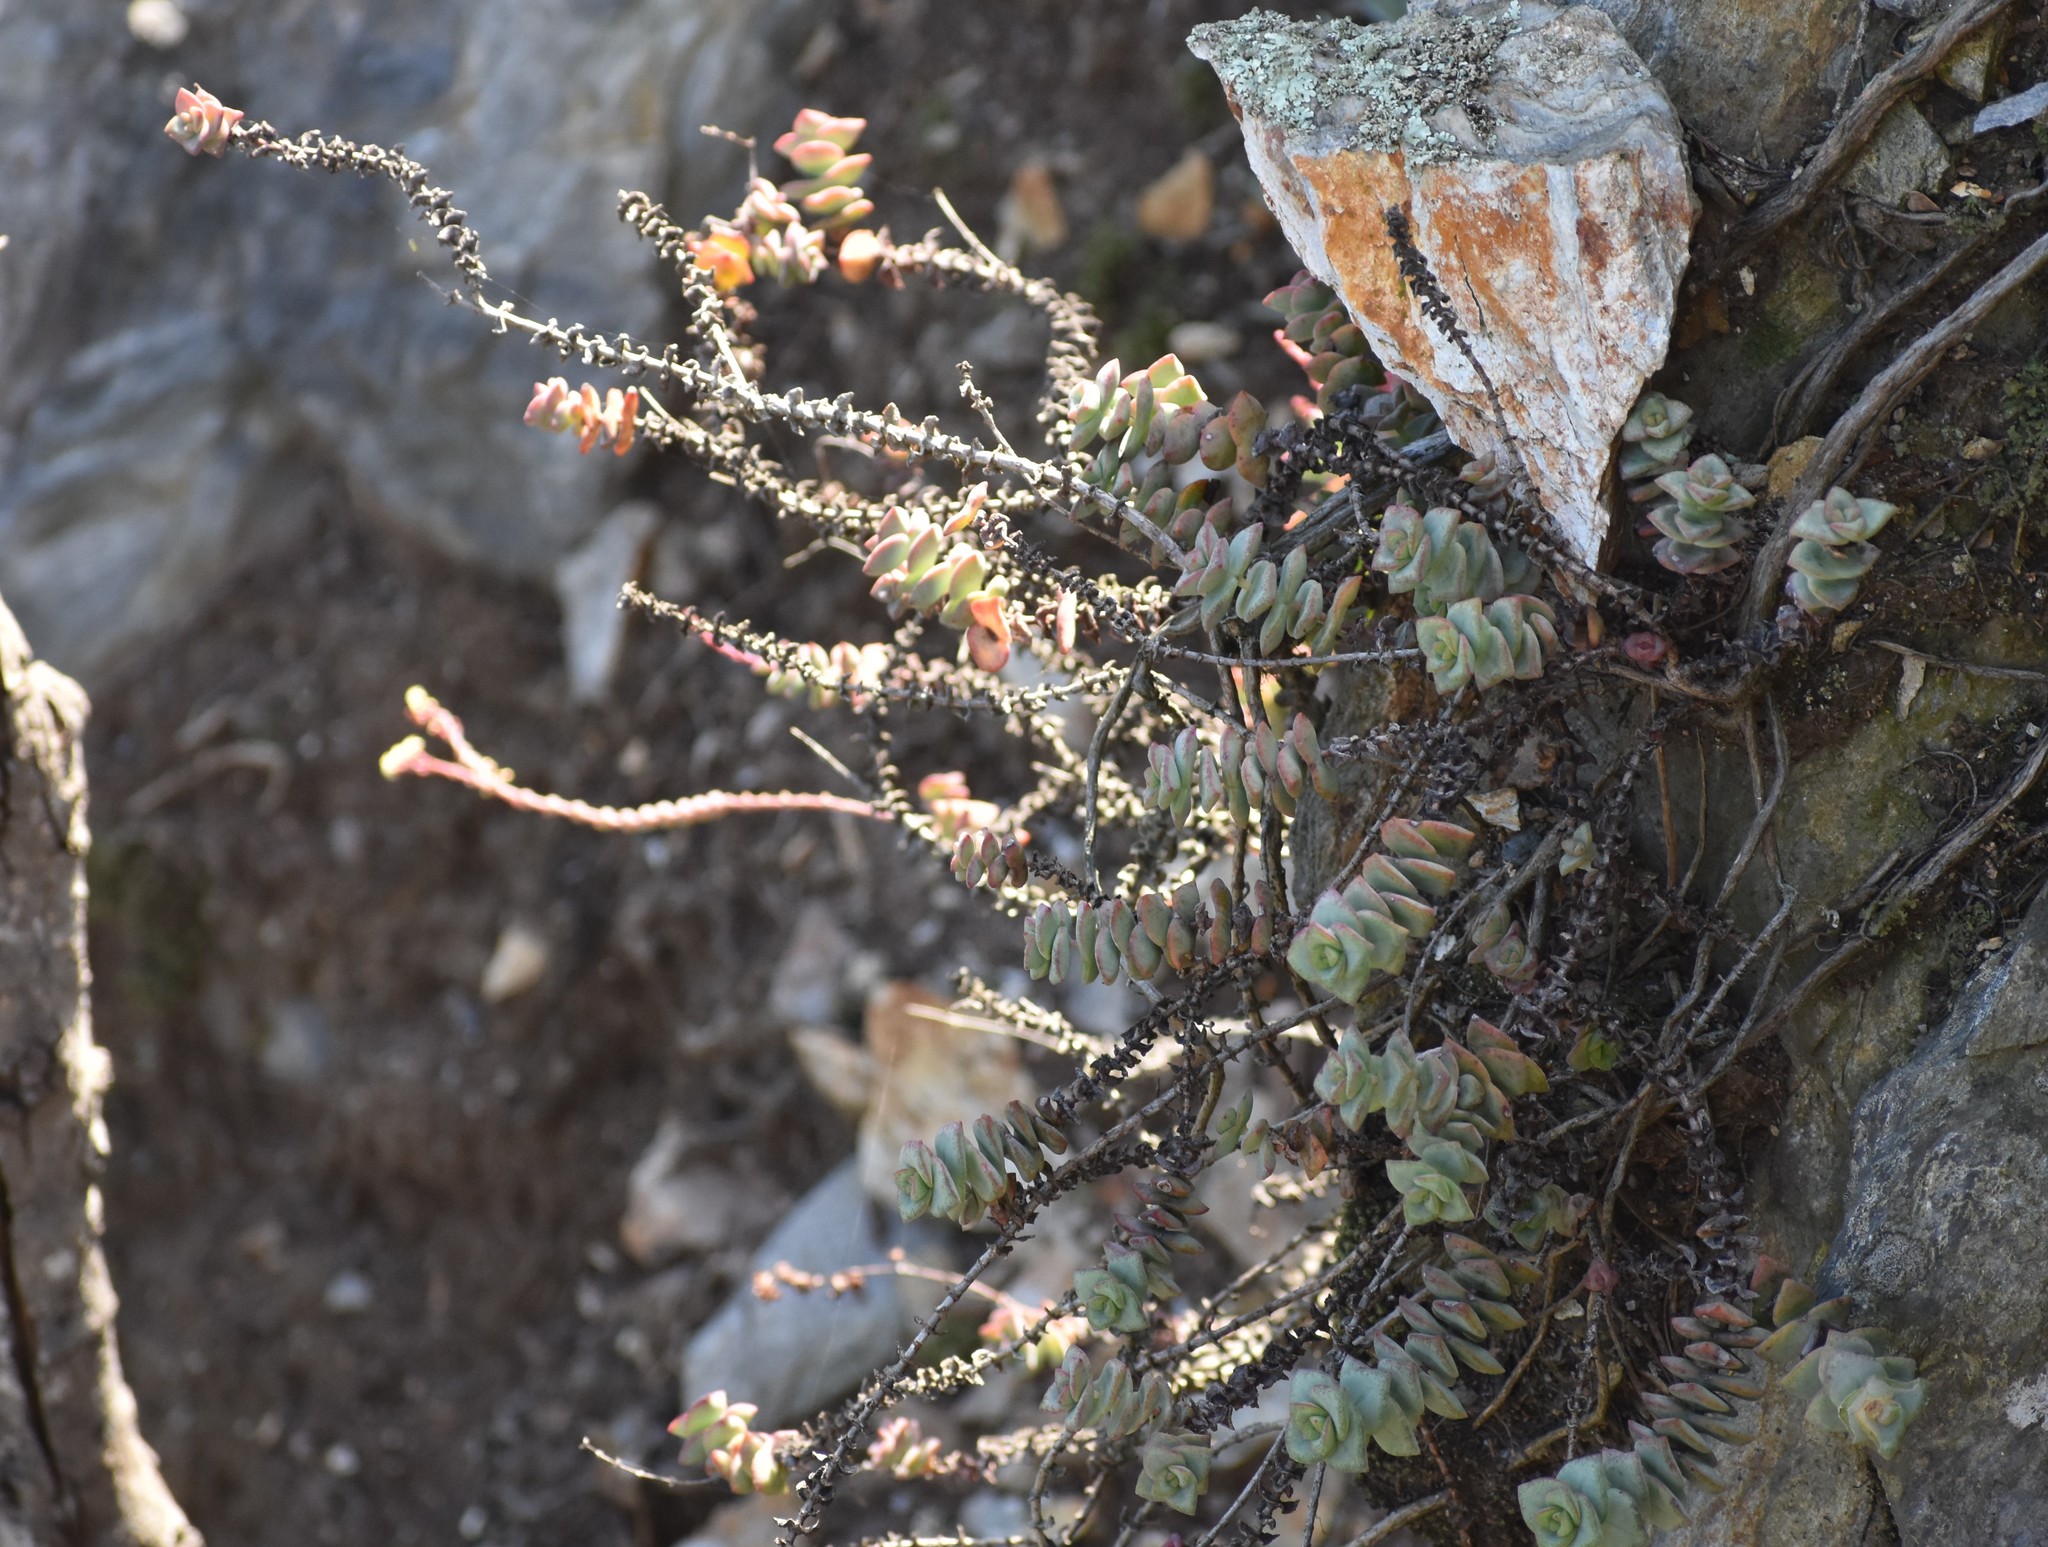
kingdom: Plantae
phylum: Tracheophyta
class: Magnoliopsida
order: Saxifragales
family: Crassulaceae
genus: Crassula
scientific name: Crassula perforata
